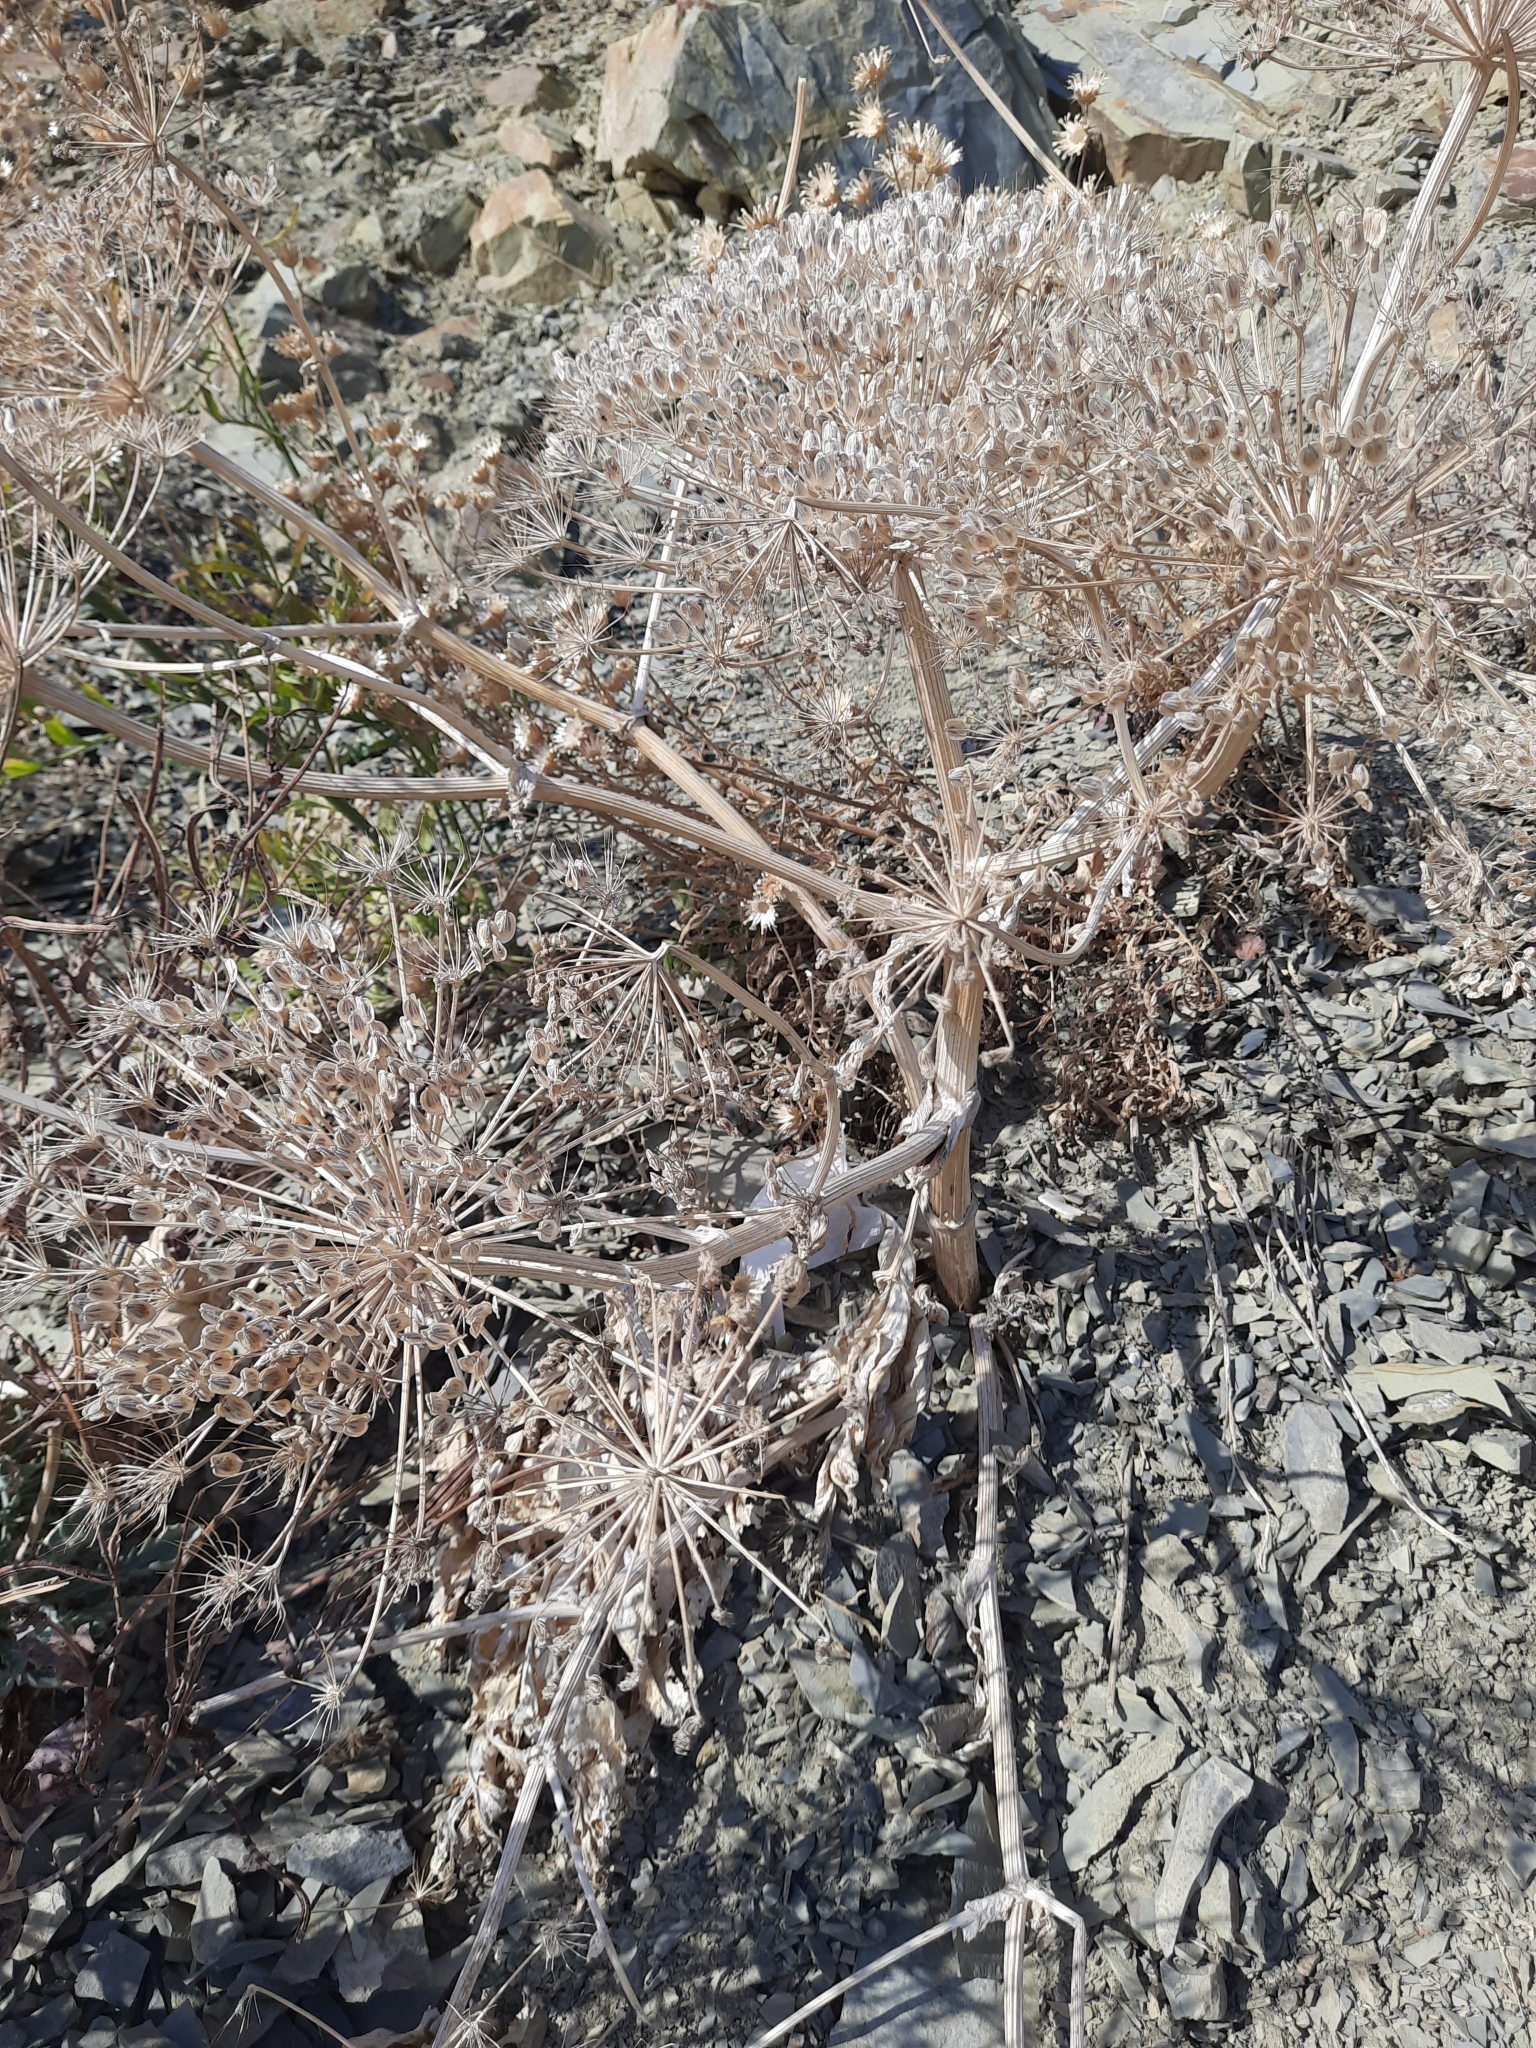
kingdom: Plantae
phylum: Tracheophyta
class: Magnoliopsida
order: Apiales
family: Apiaceae
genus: Heracleum
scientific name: Heracleum stevenii
